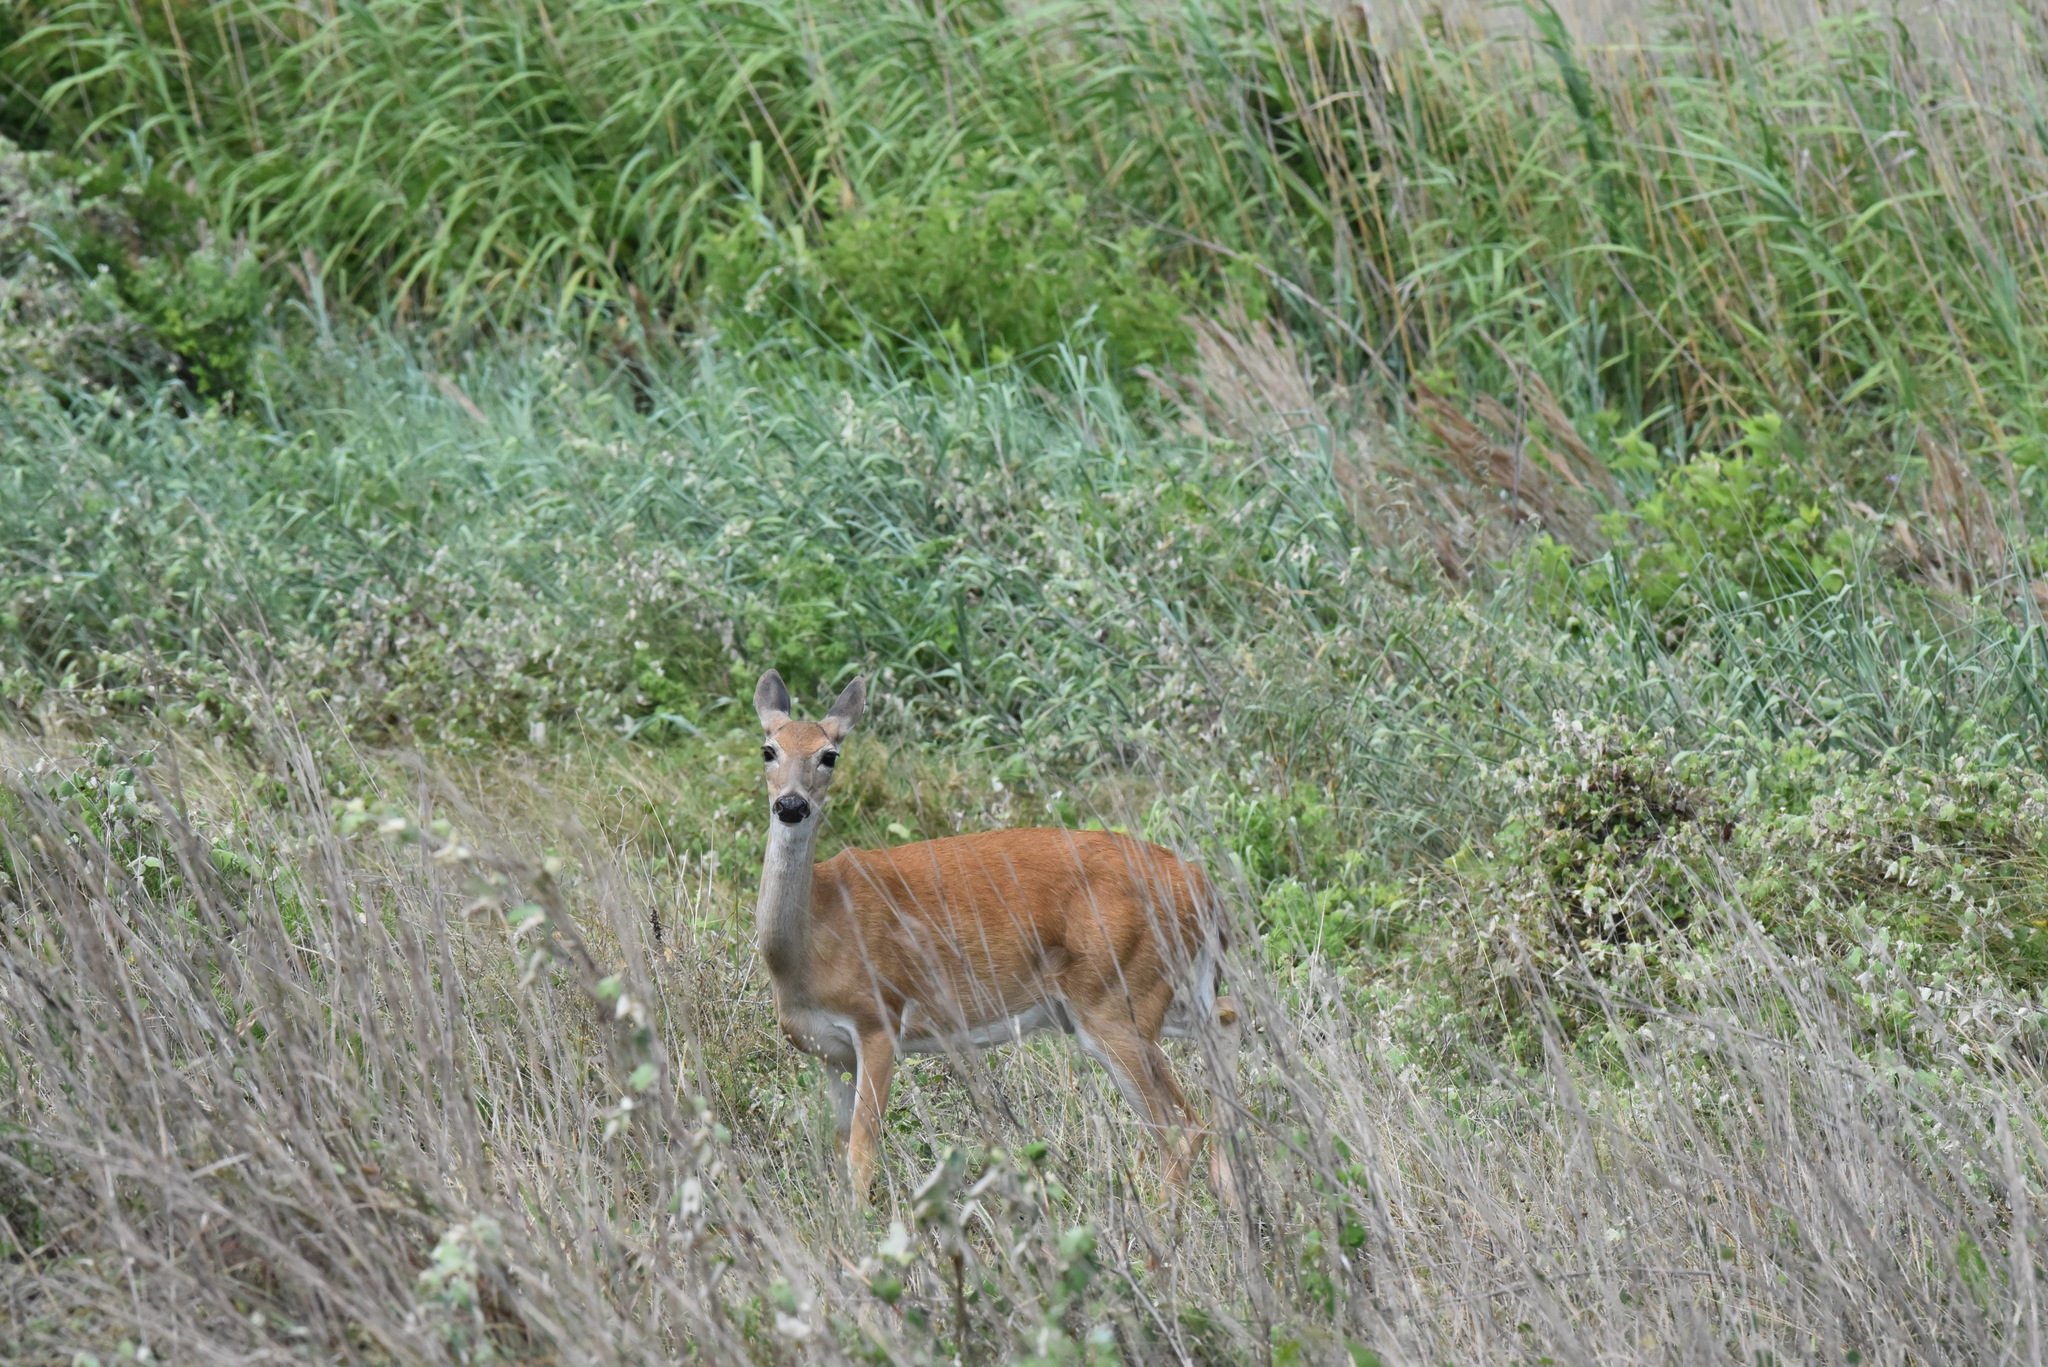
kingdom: Animalia
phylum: Chordata
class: Mammalia
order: Artiodactyla
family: Cervidae
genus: Odocoileus
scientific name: Odocoileus virginianus
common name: White-tailed deer
